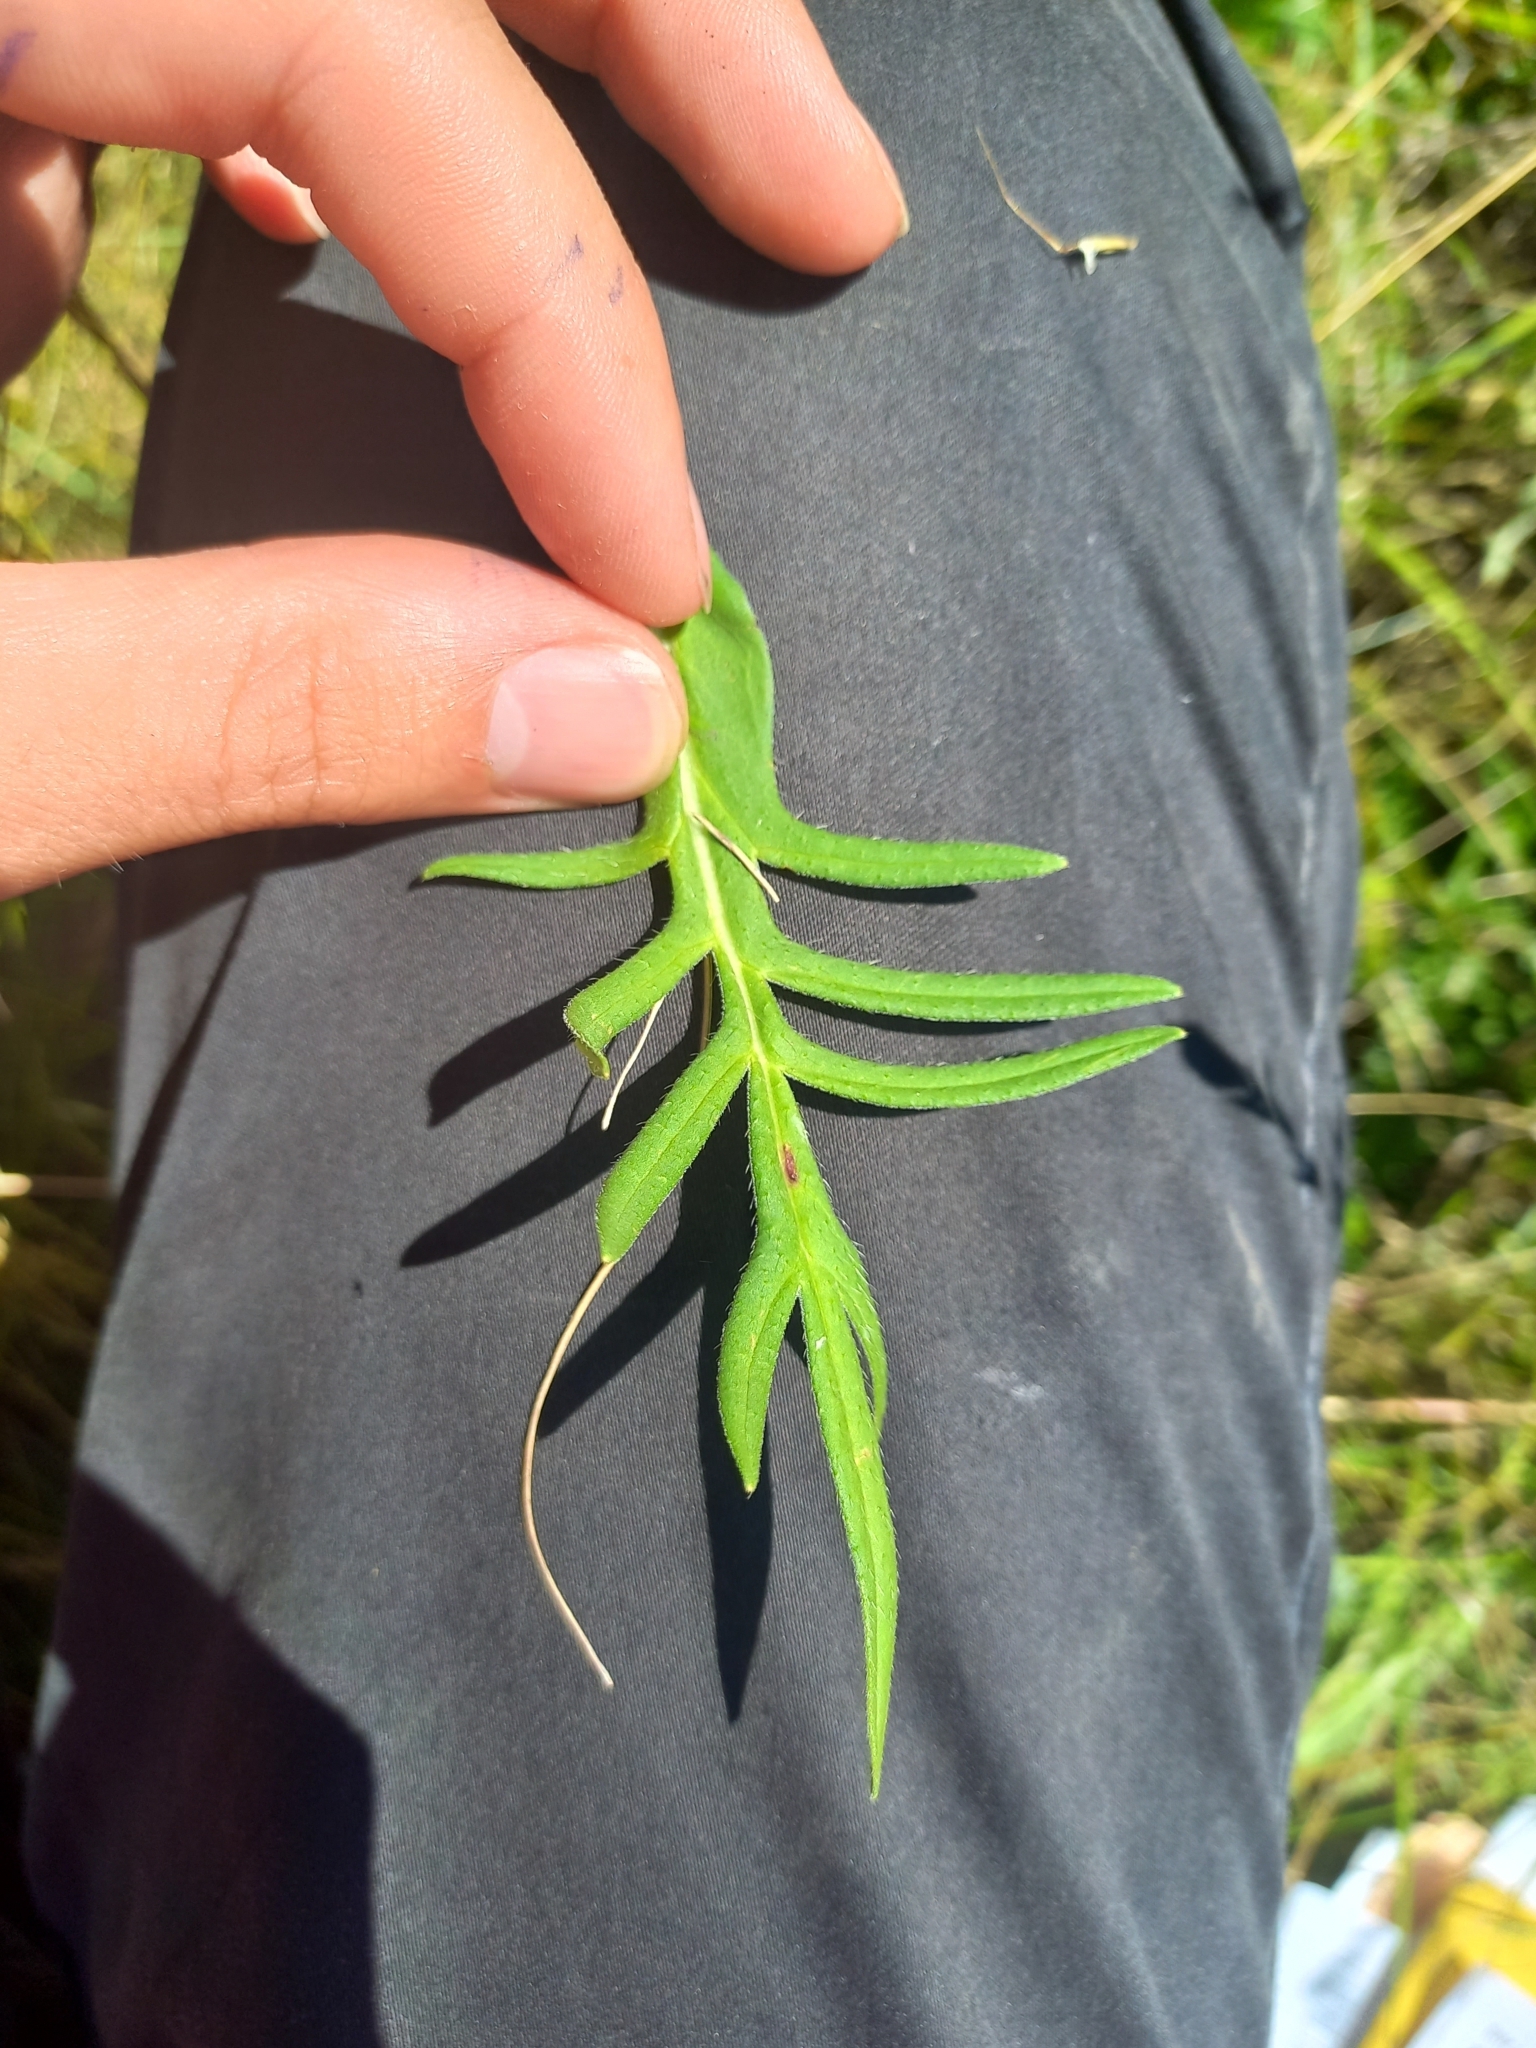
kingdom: Plantae
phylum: Tracheophyta
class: Magnoliopsida
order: Dipsacales
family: Caprifoliaceae
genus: Knautia
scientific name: Knautia arvensis
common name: Field scabiosa
